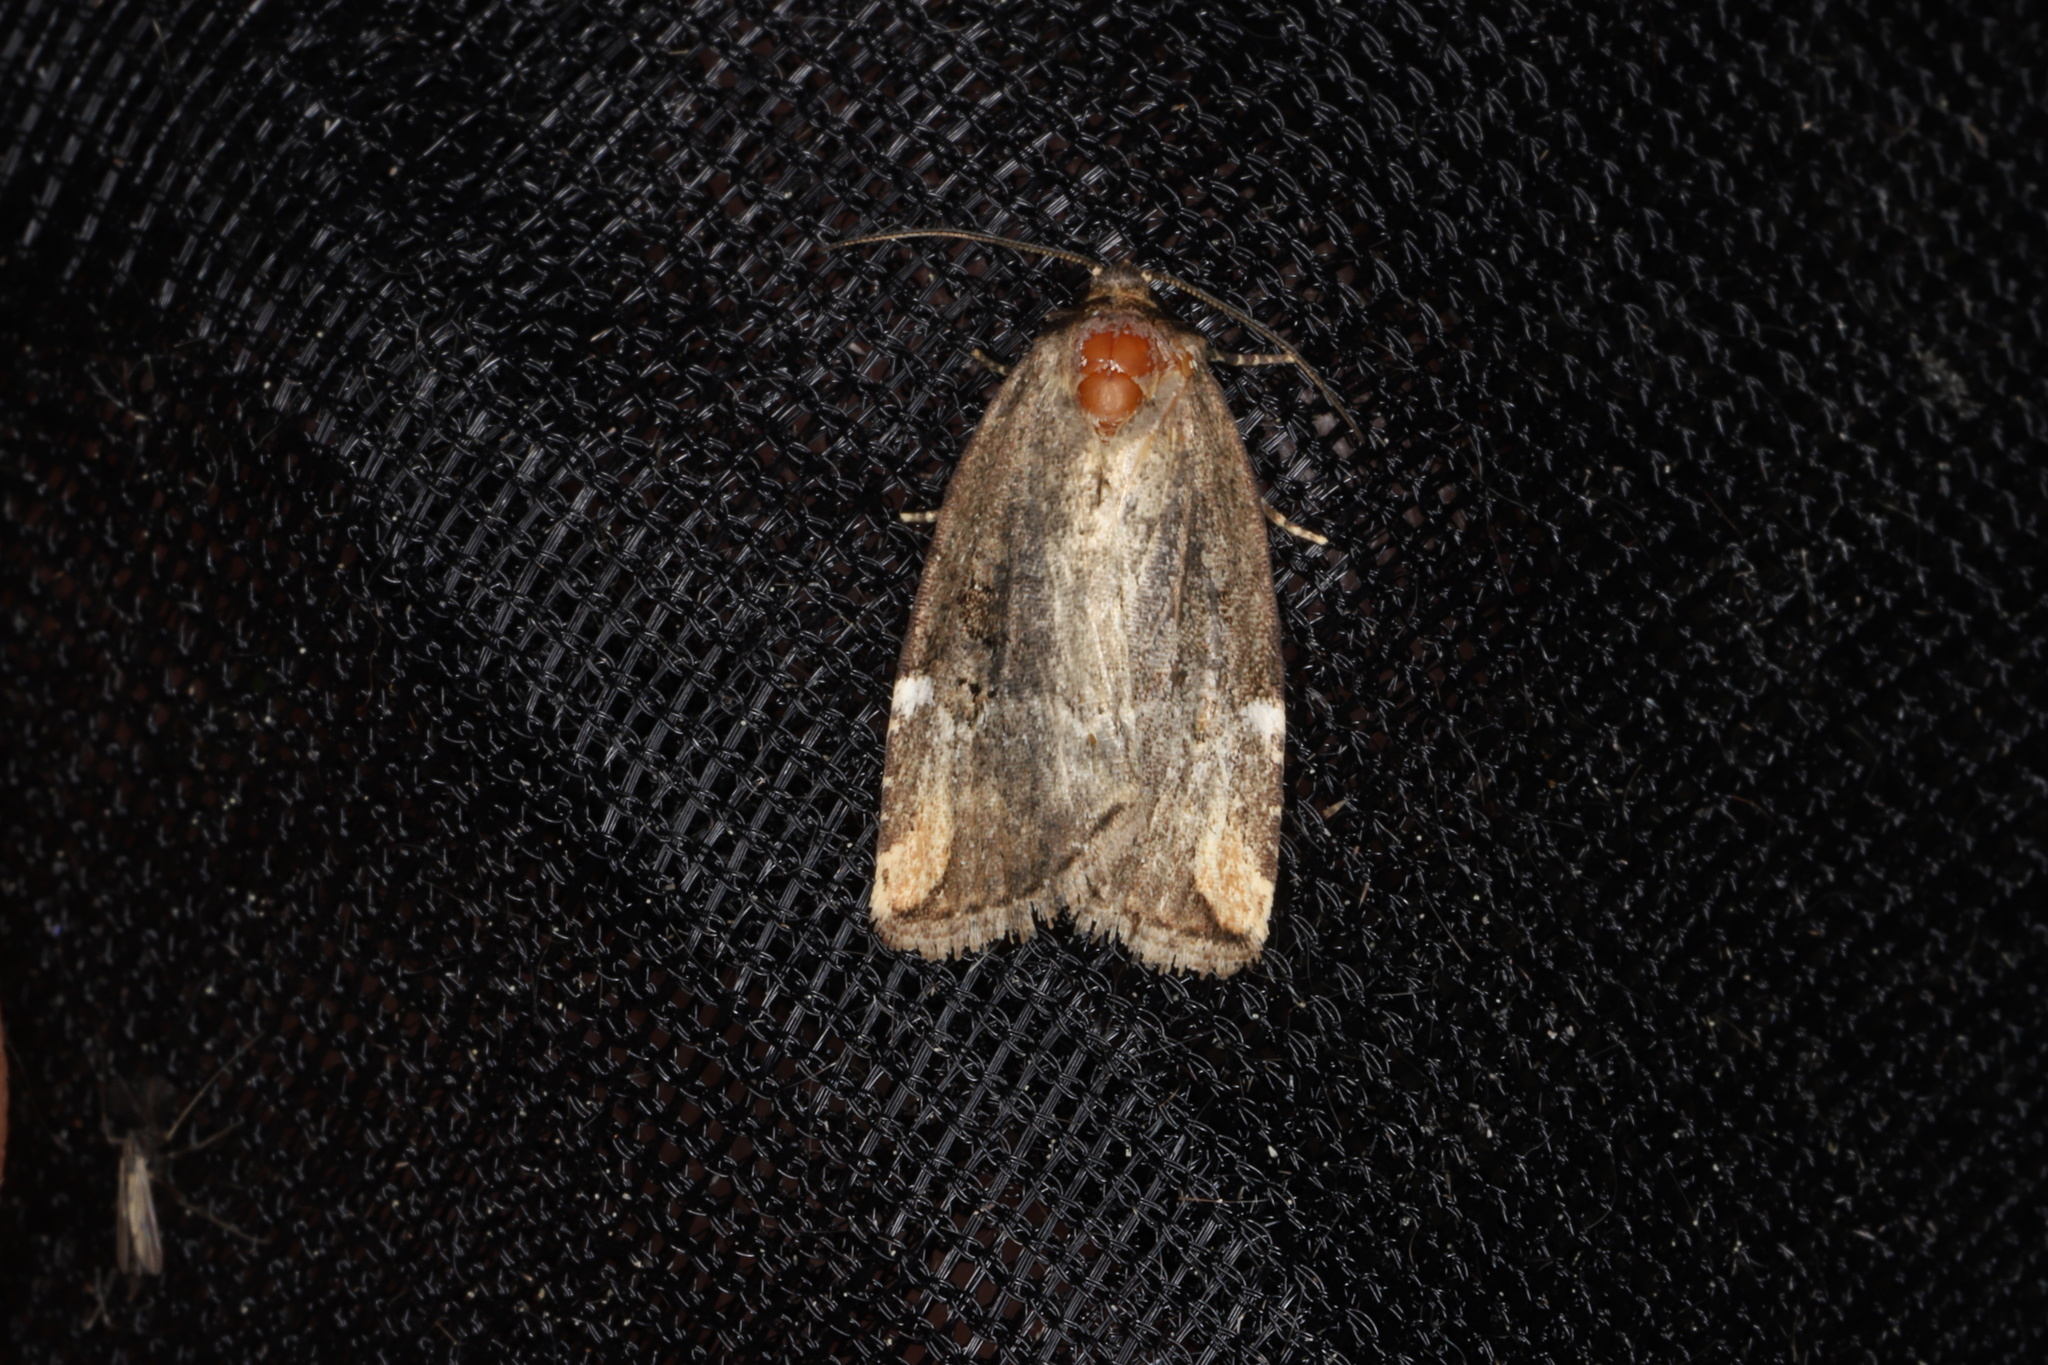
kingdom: Animalia
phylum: Arthropoda
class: Insecta
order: Lepidoptera
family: Noctuidae
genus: Elaphria
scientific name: Elaphria versicolor
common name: Fir harlequin
